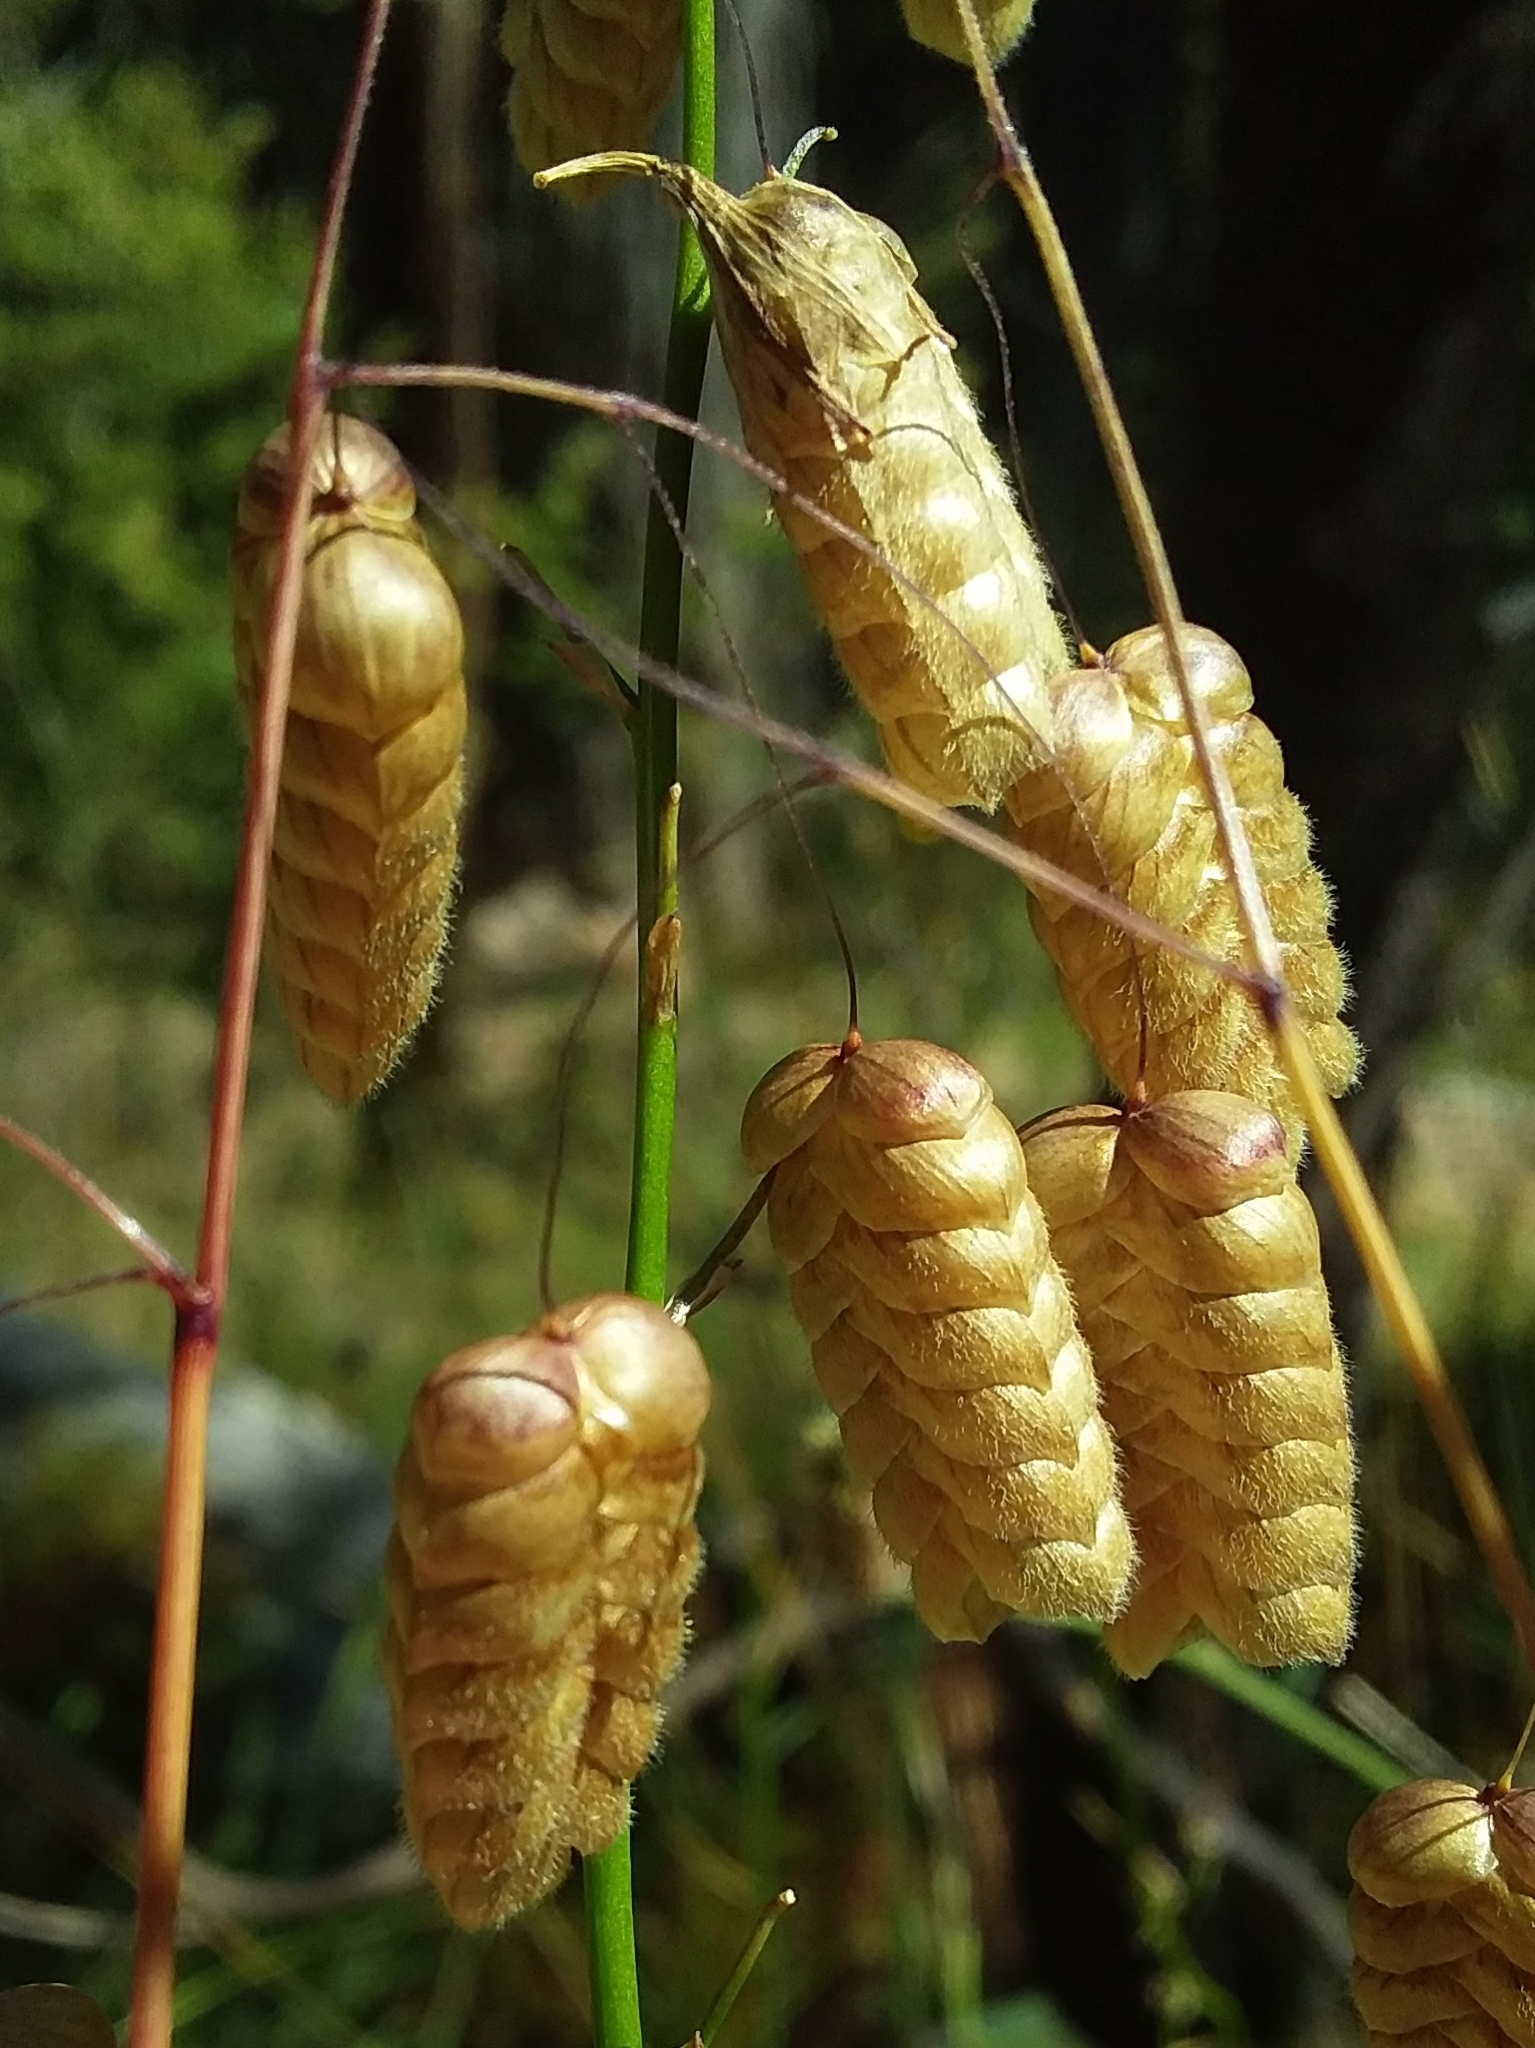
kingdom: Plantae
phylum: Tracheophyta
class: Liliopsida
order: Poales
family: Poaceae
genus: Briza
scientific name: Briza maxima
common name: Big quakinggrass
